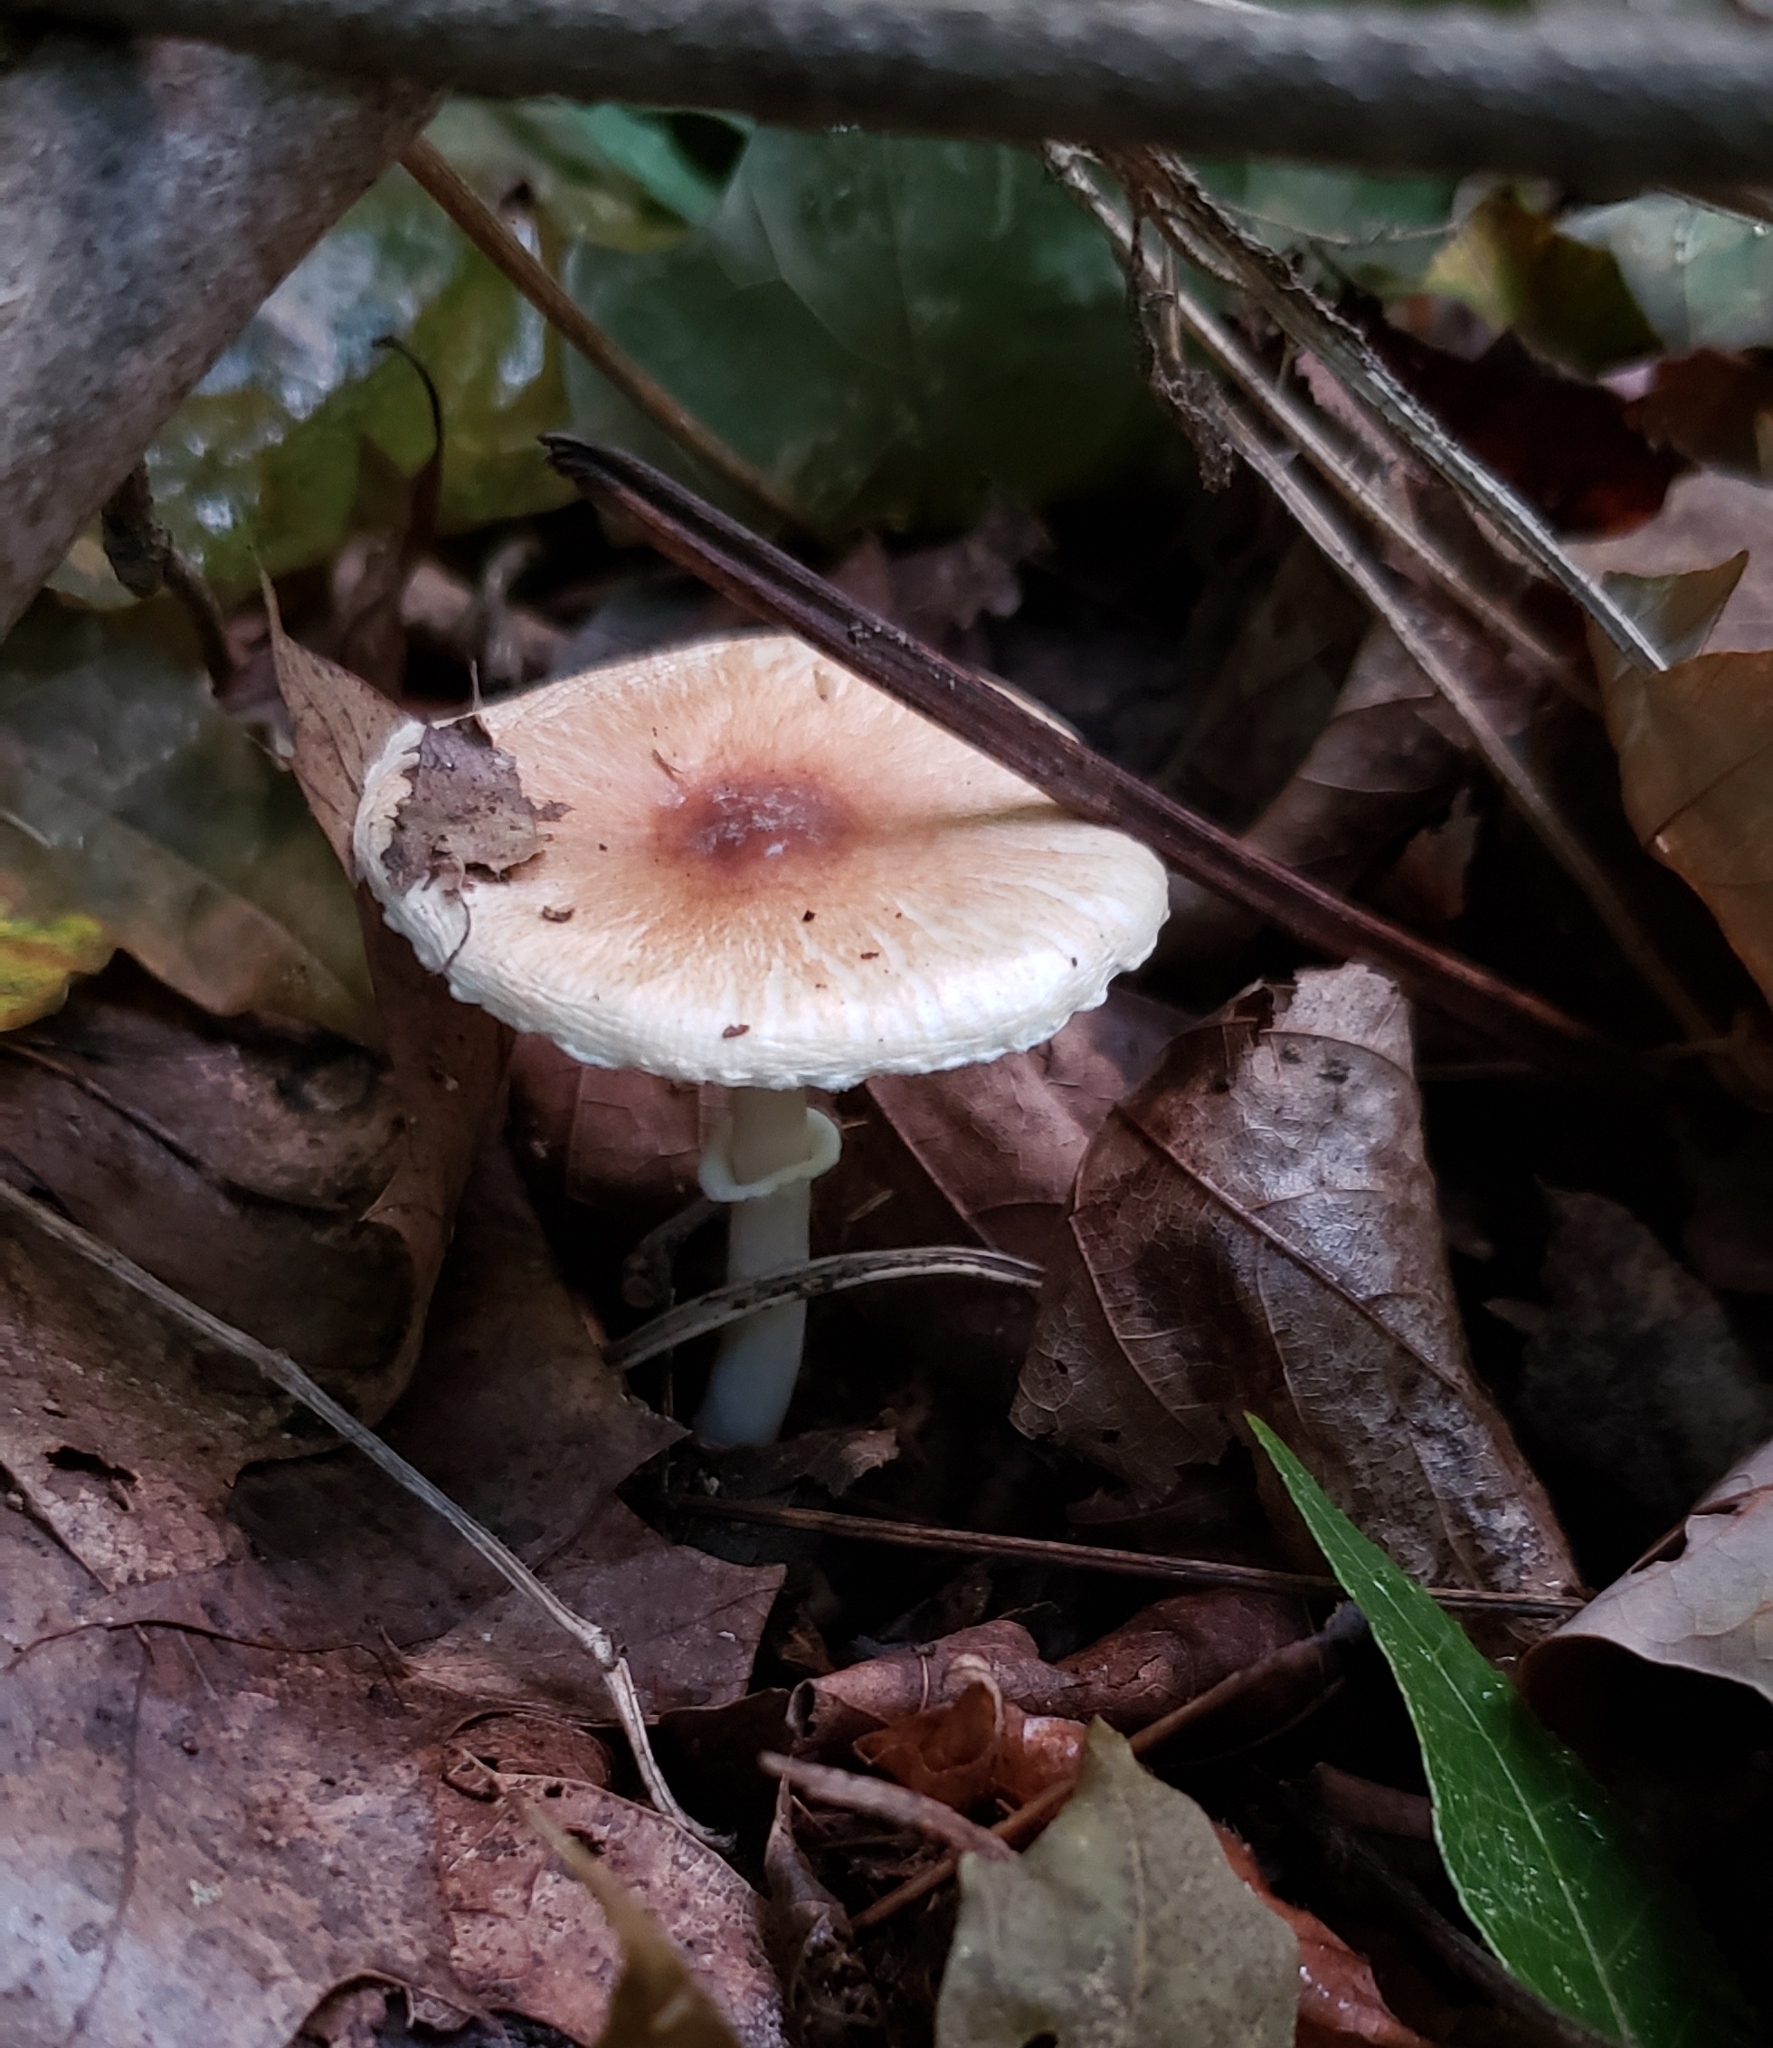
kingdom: Fungi
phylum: Basidiomycota
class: Agaricomycetes
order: Agaricales
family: Agaricaceae
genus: Leucoagaricus
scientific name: Leucoagaricus rubrotinctus
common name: Ruby dapperling
